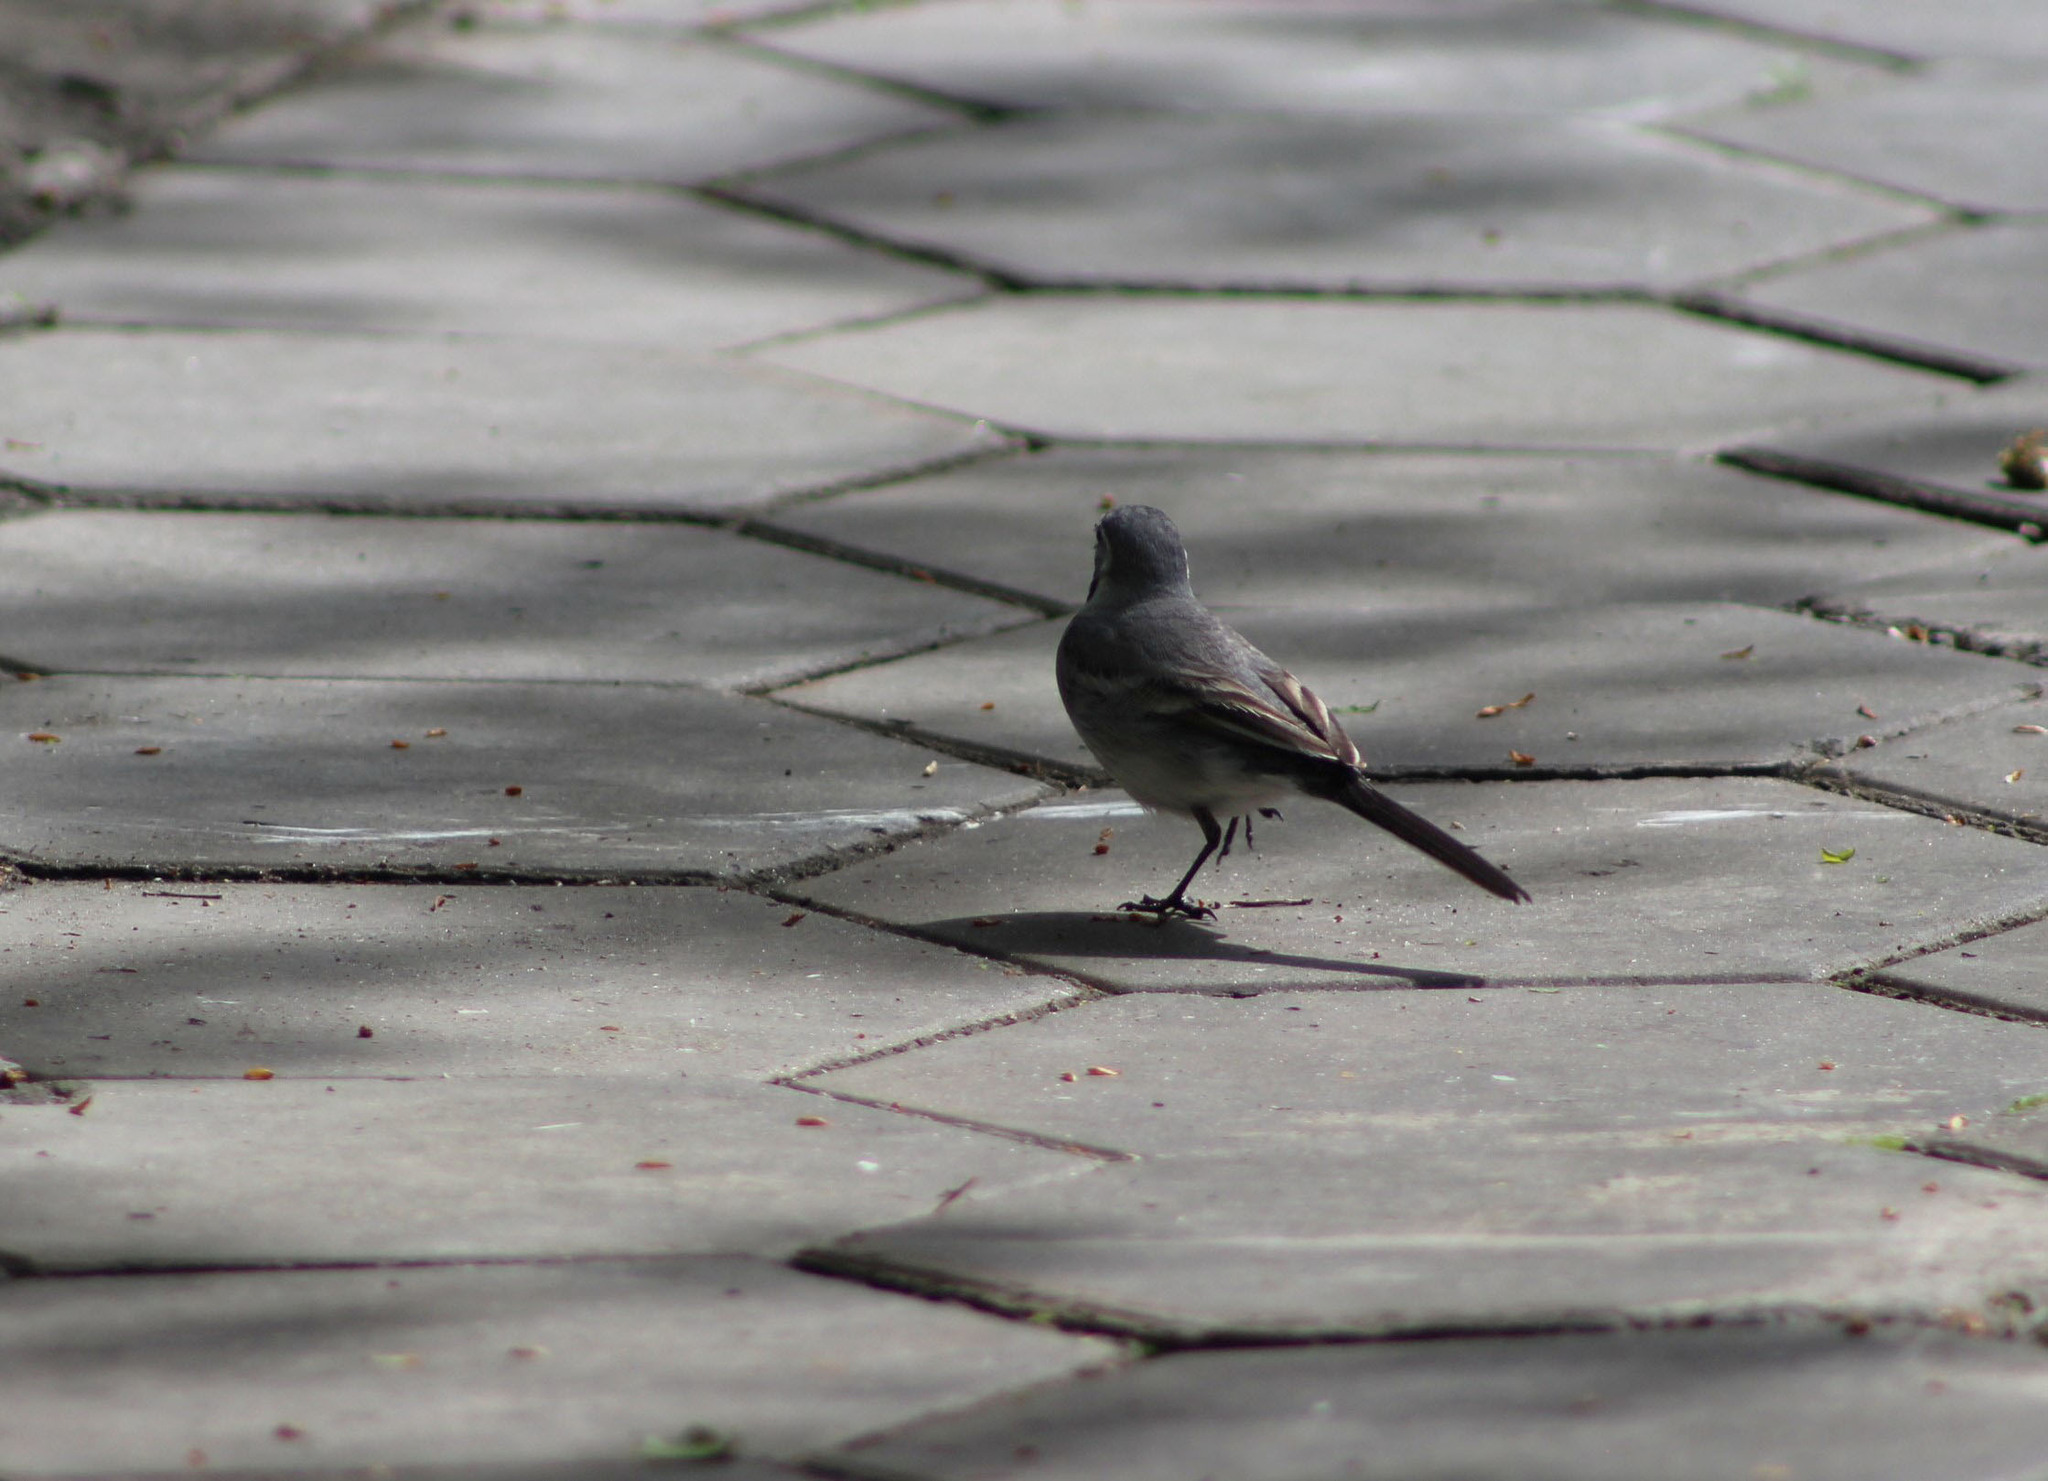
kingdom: Animalia
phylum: Chordata
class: Aves
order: Passeriformes
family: Motacillidae
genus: Motacilla
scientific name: Motacilla alba
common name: White wagtail
